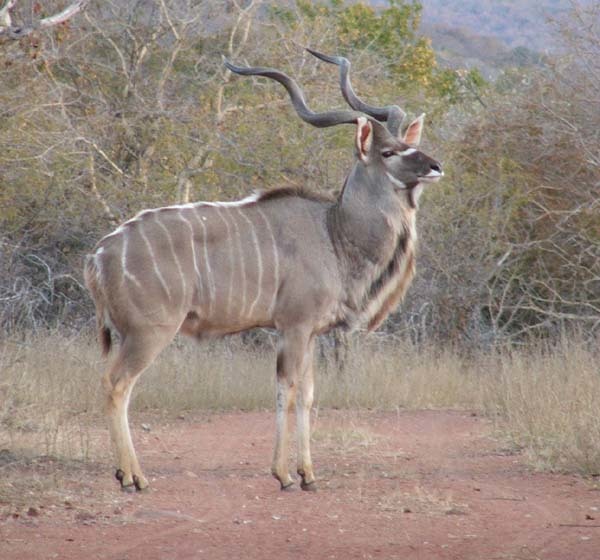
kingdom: Animalia
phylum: Chordata
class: Mammalia
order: Artiodactyla
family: Bovidae
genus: Tragelaphus
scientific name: Tragelaphus strepsiceros
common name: Greater kudu
